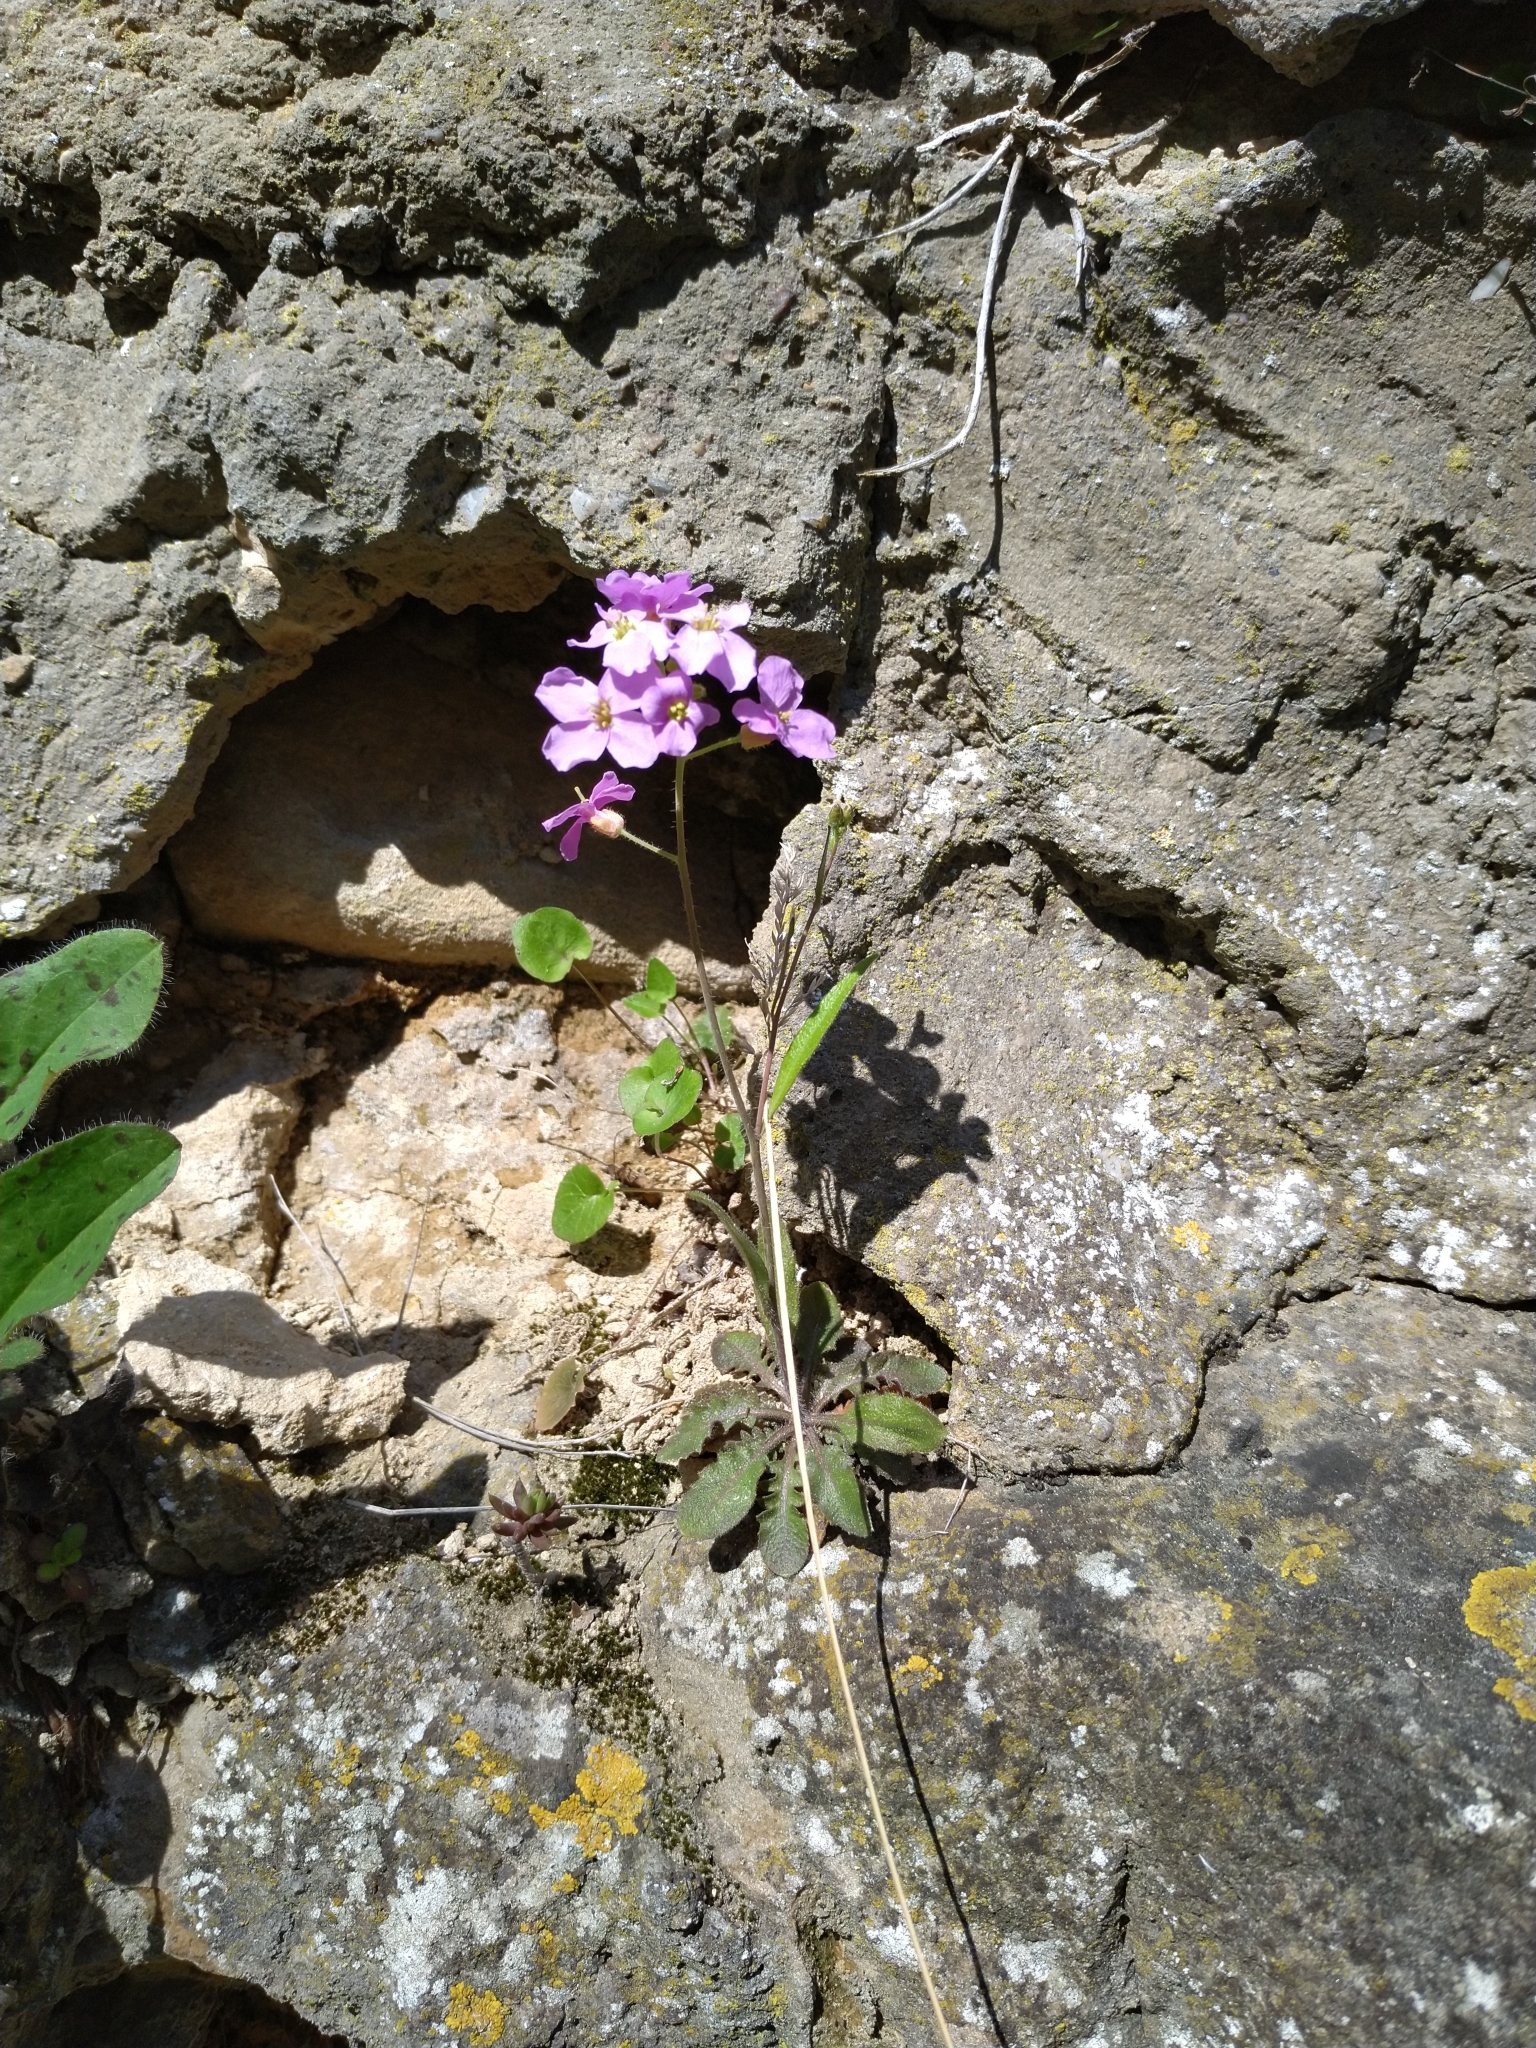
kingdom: Plantae
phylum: Tracheophyta
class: Magnoliopsida
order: Brassicales
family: Brassicaceae
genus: Arabidopsis
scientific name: Arabidopsis arenosa
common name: Sand rock-cress
